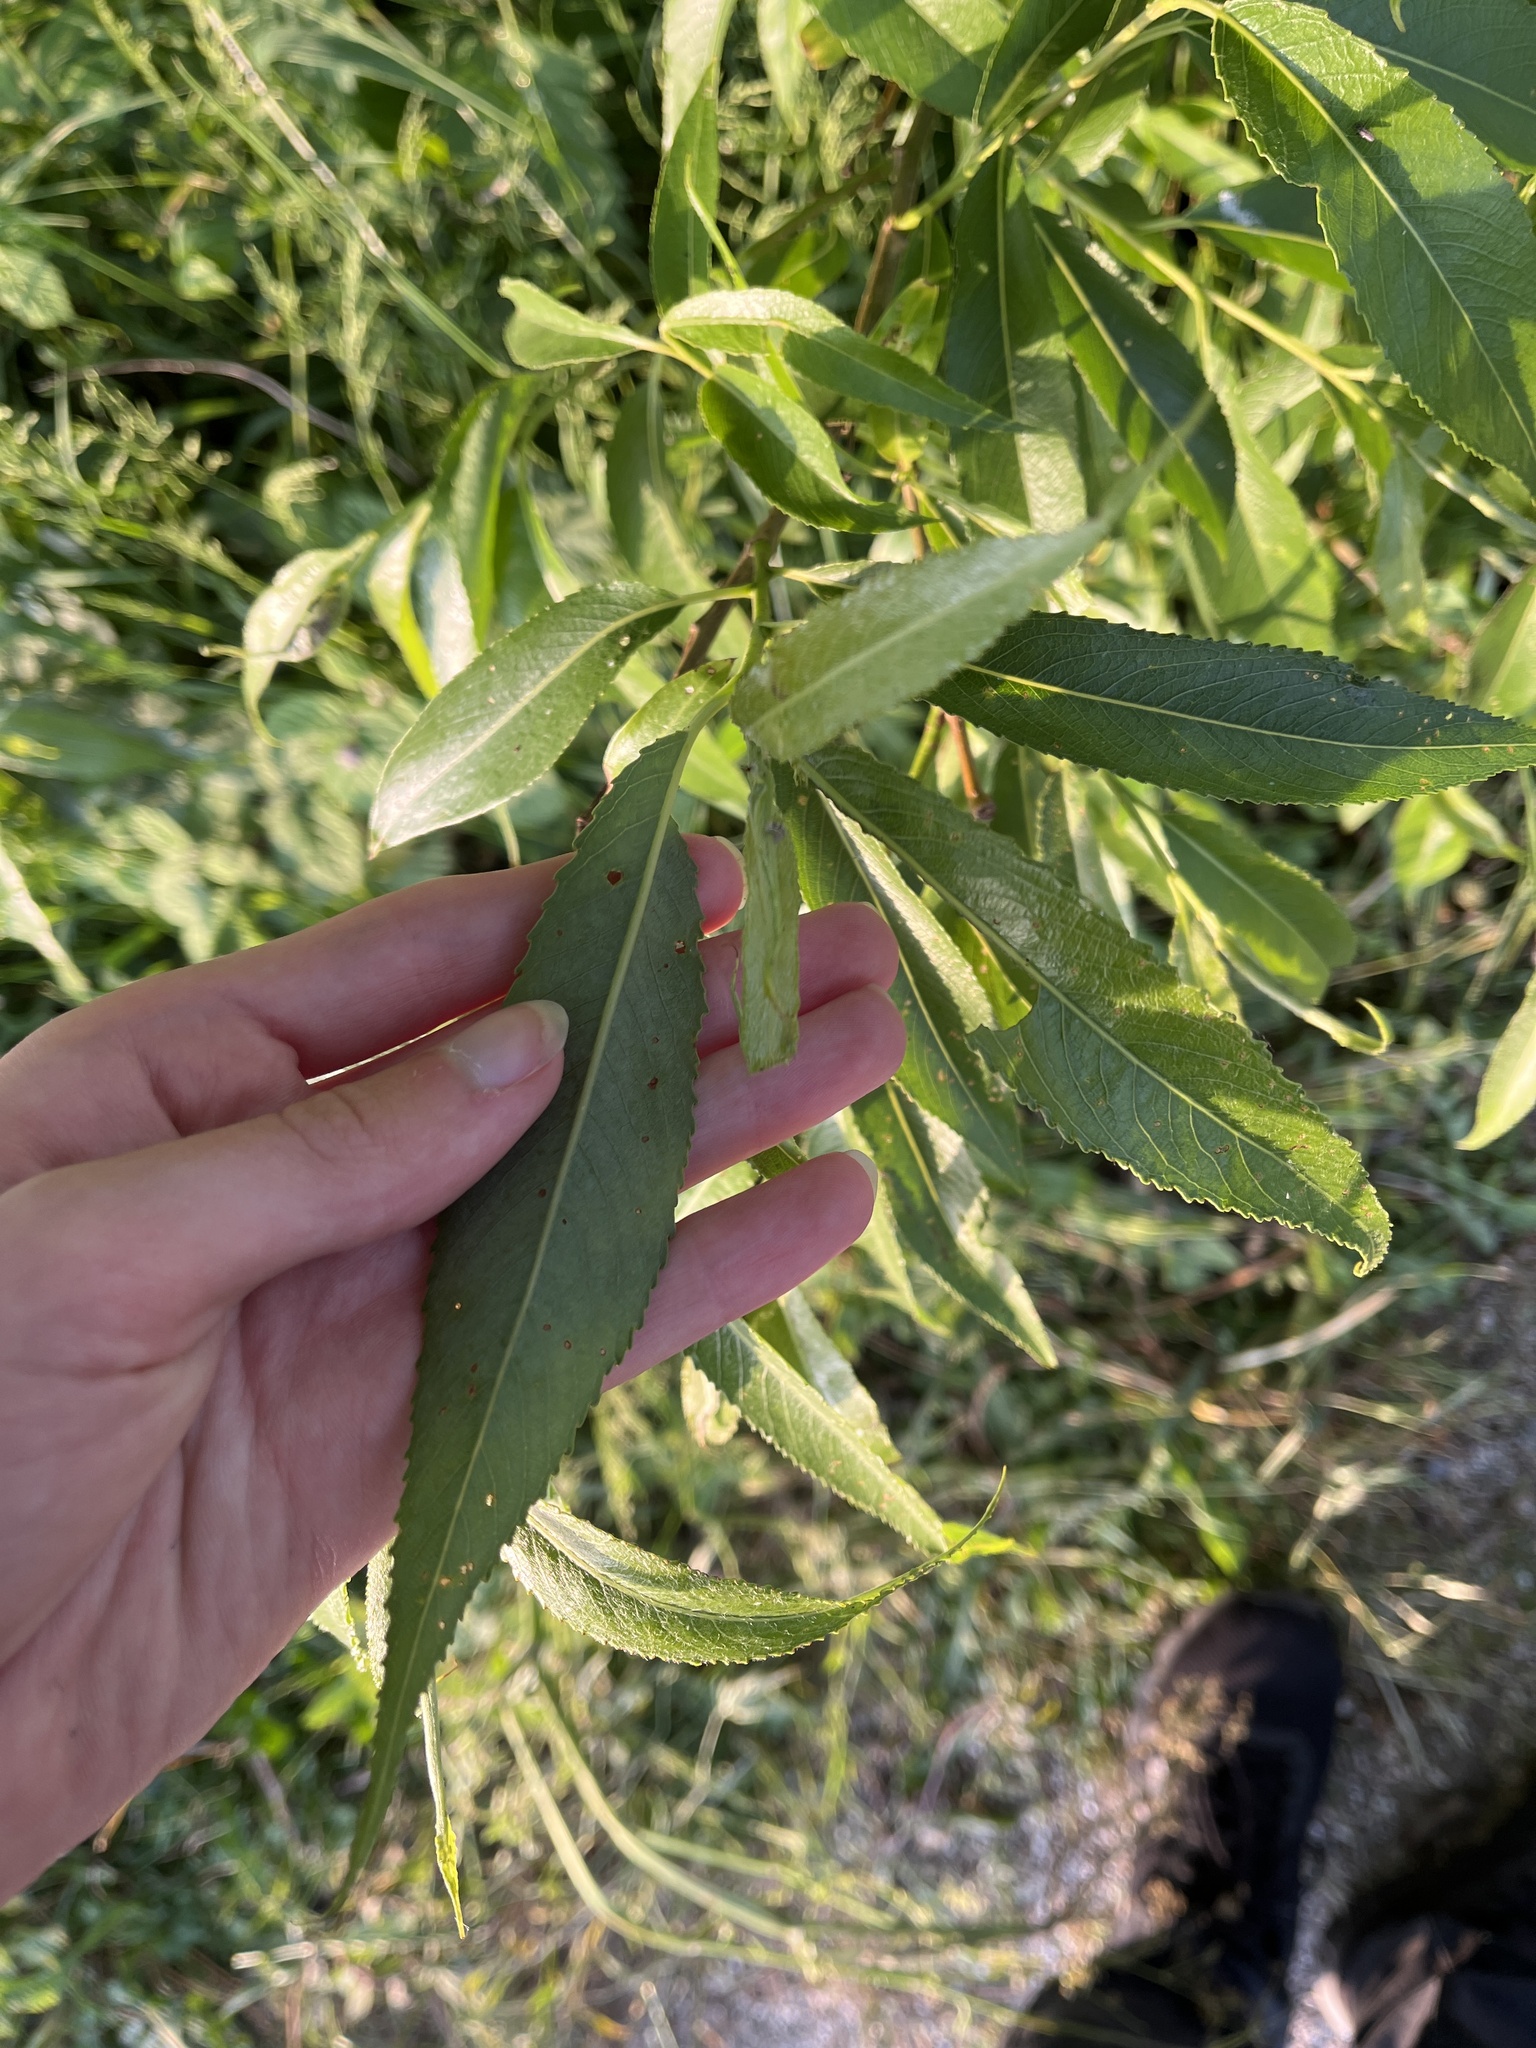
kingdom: Plantae
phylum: Tracheophyta
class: Magnoliopsida
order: Malpighiales
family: Salicaceae
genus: Salix
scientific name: Salix fragilis
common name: Crack willow
